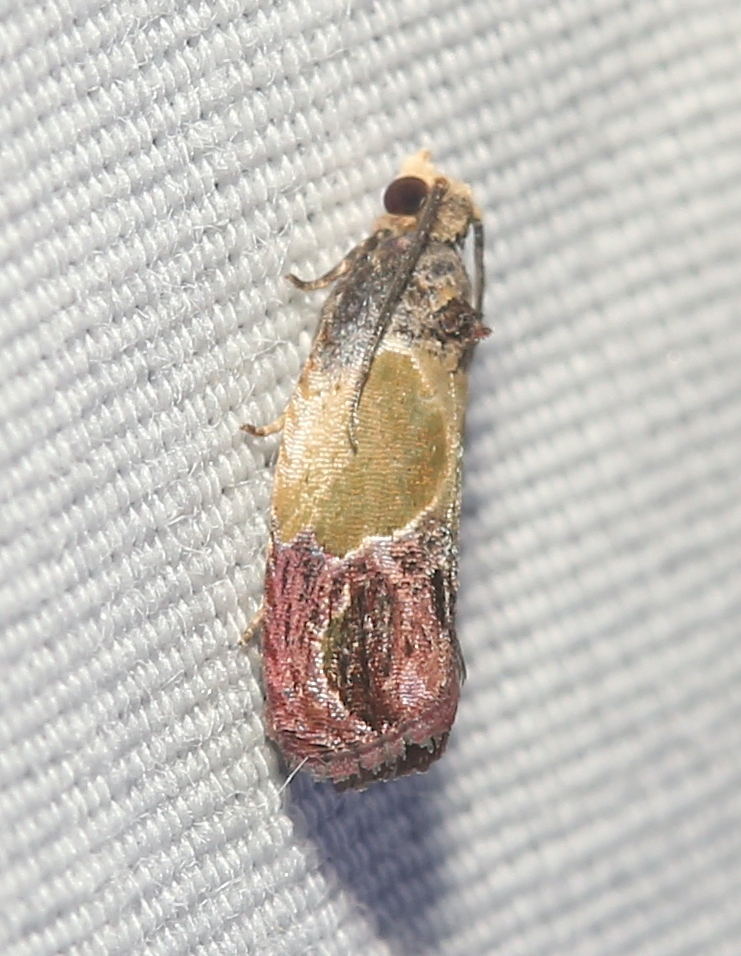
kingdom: Animalia
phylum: Arthropoda
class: Insecta
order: Lepidoptera
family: Tortricidae
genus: Eumarozia
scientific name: Eumarozia malachitana
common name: Sculptured moth
